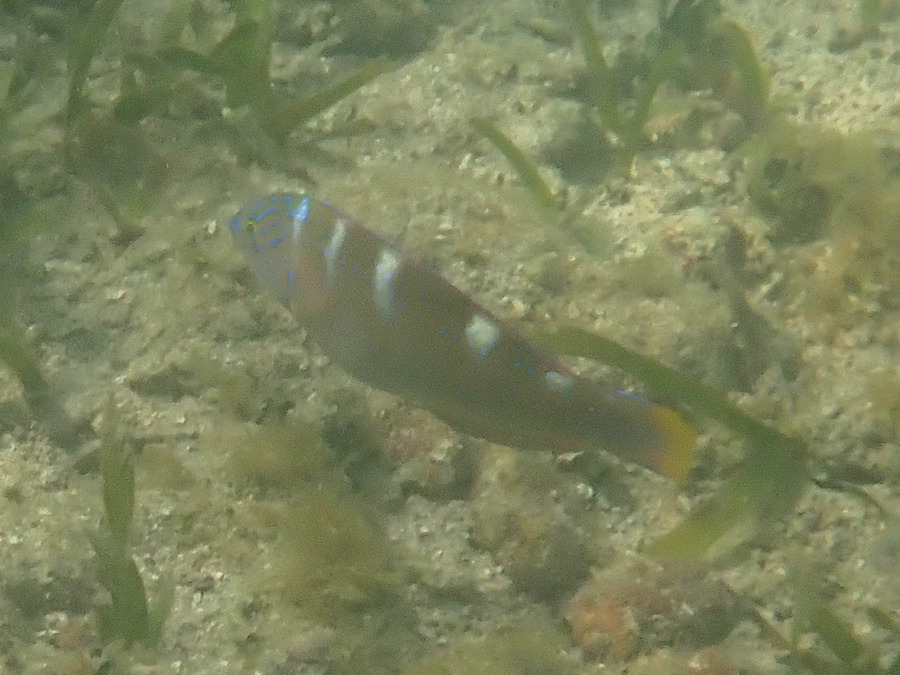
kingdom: Animalia
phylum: Chordata
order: Perciformes
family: Labridae
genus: Halichoeres
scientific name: Halichoeres radiatus
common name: Puddingwife
